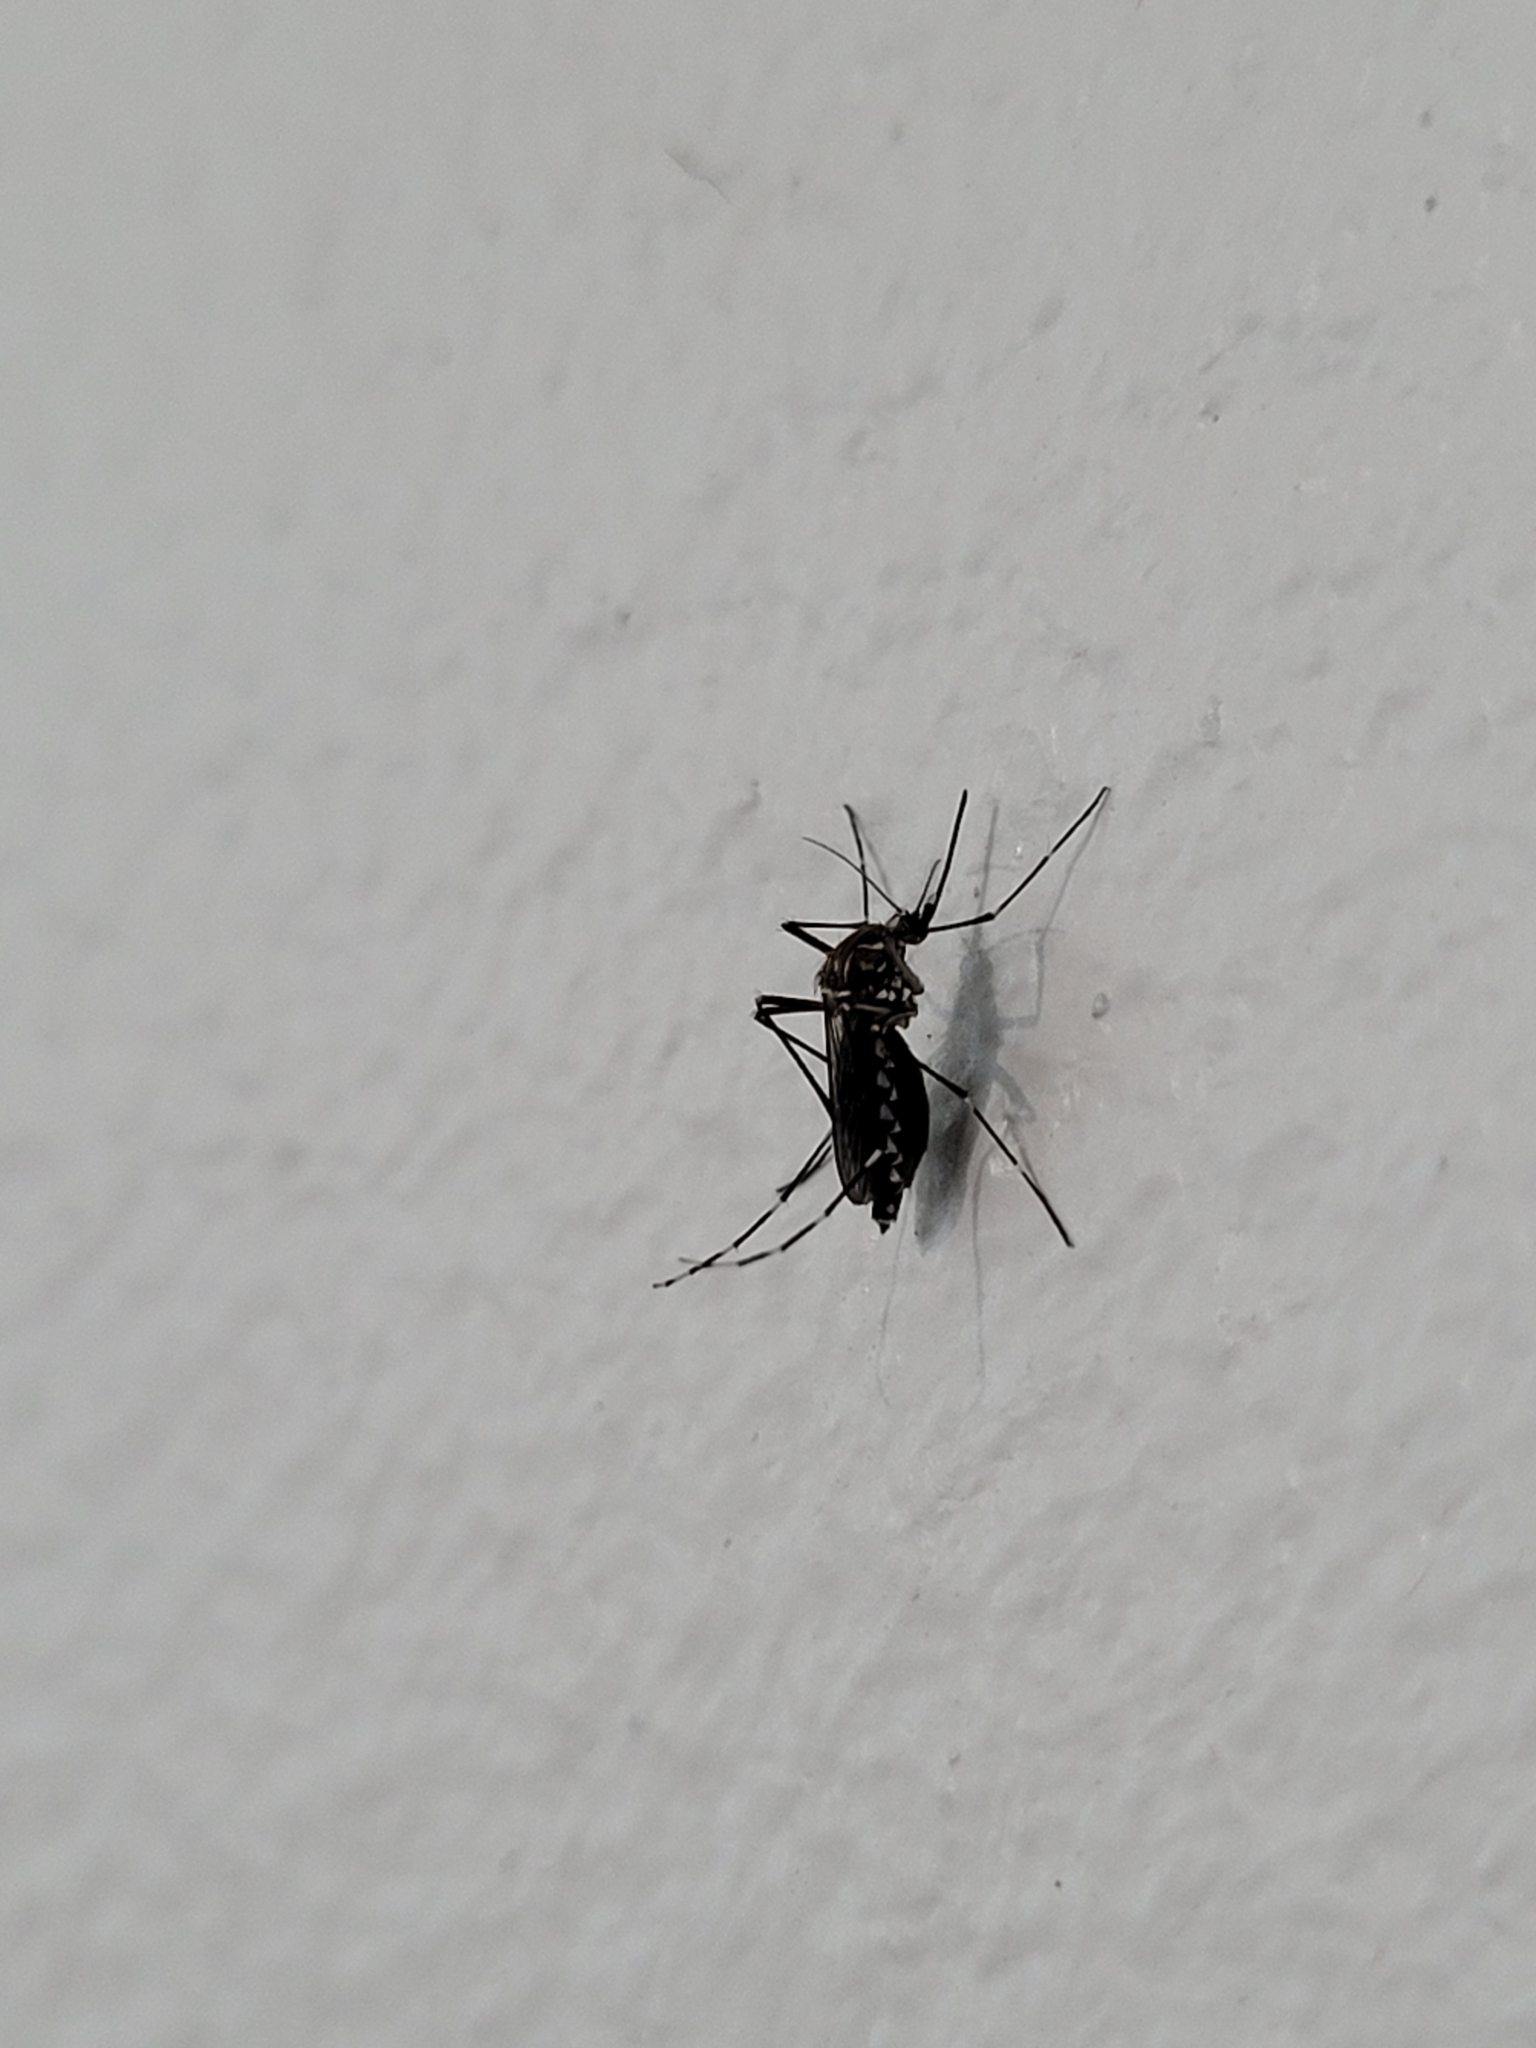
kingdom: Animalia
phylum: Arthropoda
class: Insecta
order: Diptera
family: Culicidae
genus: Aedes
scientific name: Aedes aegypti
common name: Yellow fever mosquito
